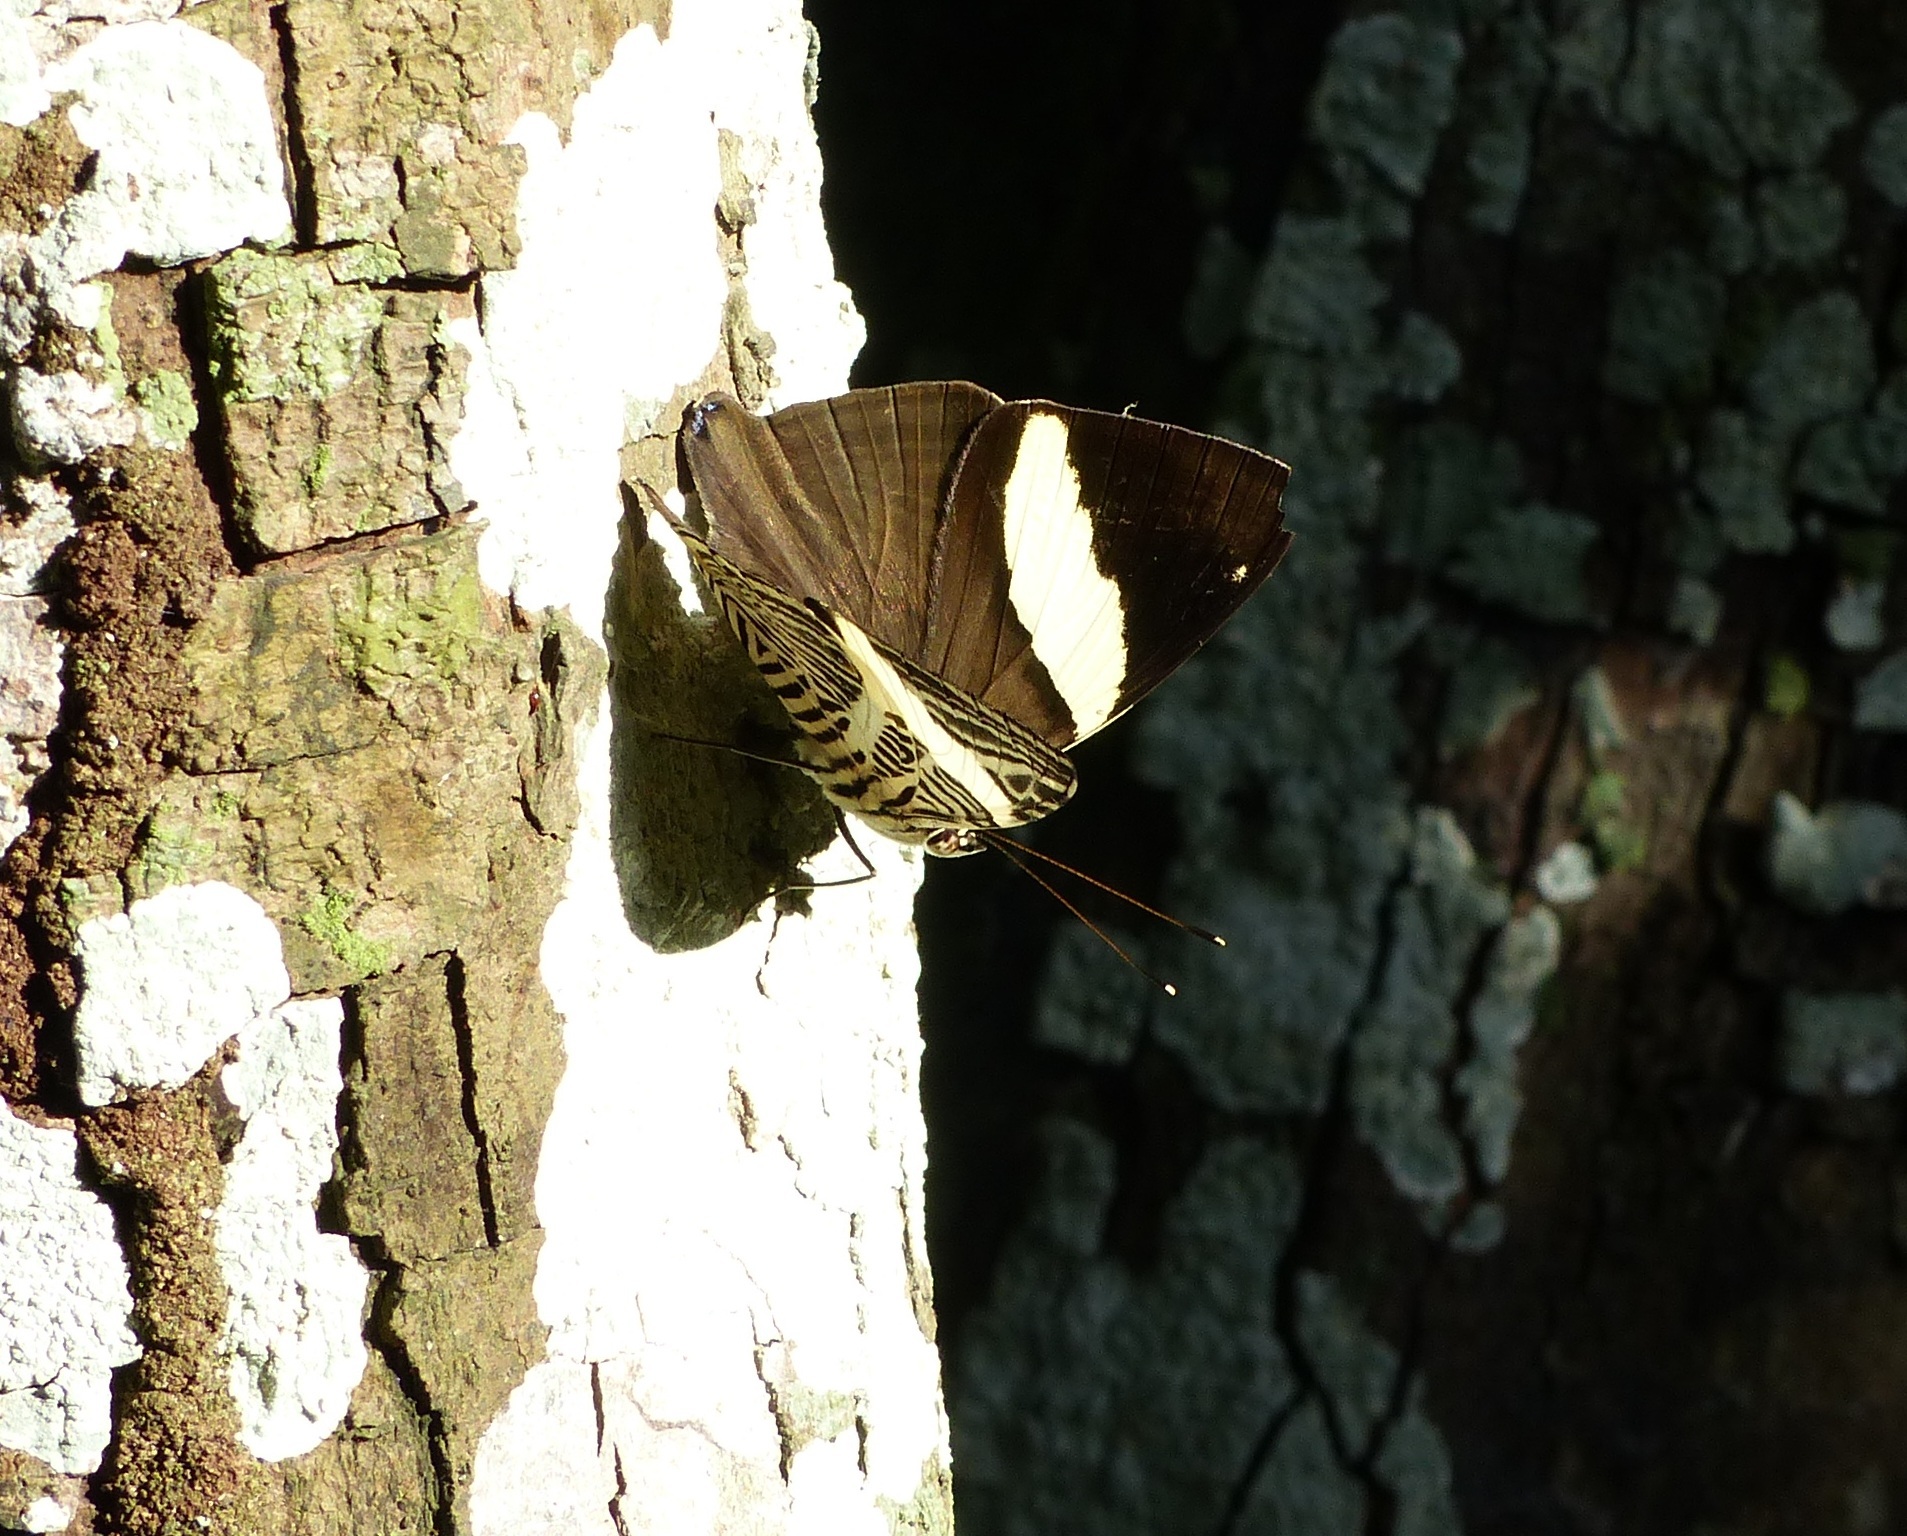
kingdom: Animalia
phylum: Arthropoda
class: Insecta
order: Lepidoptera
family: Nymphalidae
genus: Colobura
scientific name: Colobura dirce
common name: Dirce beauty
